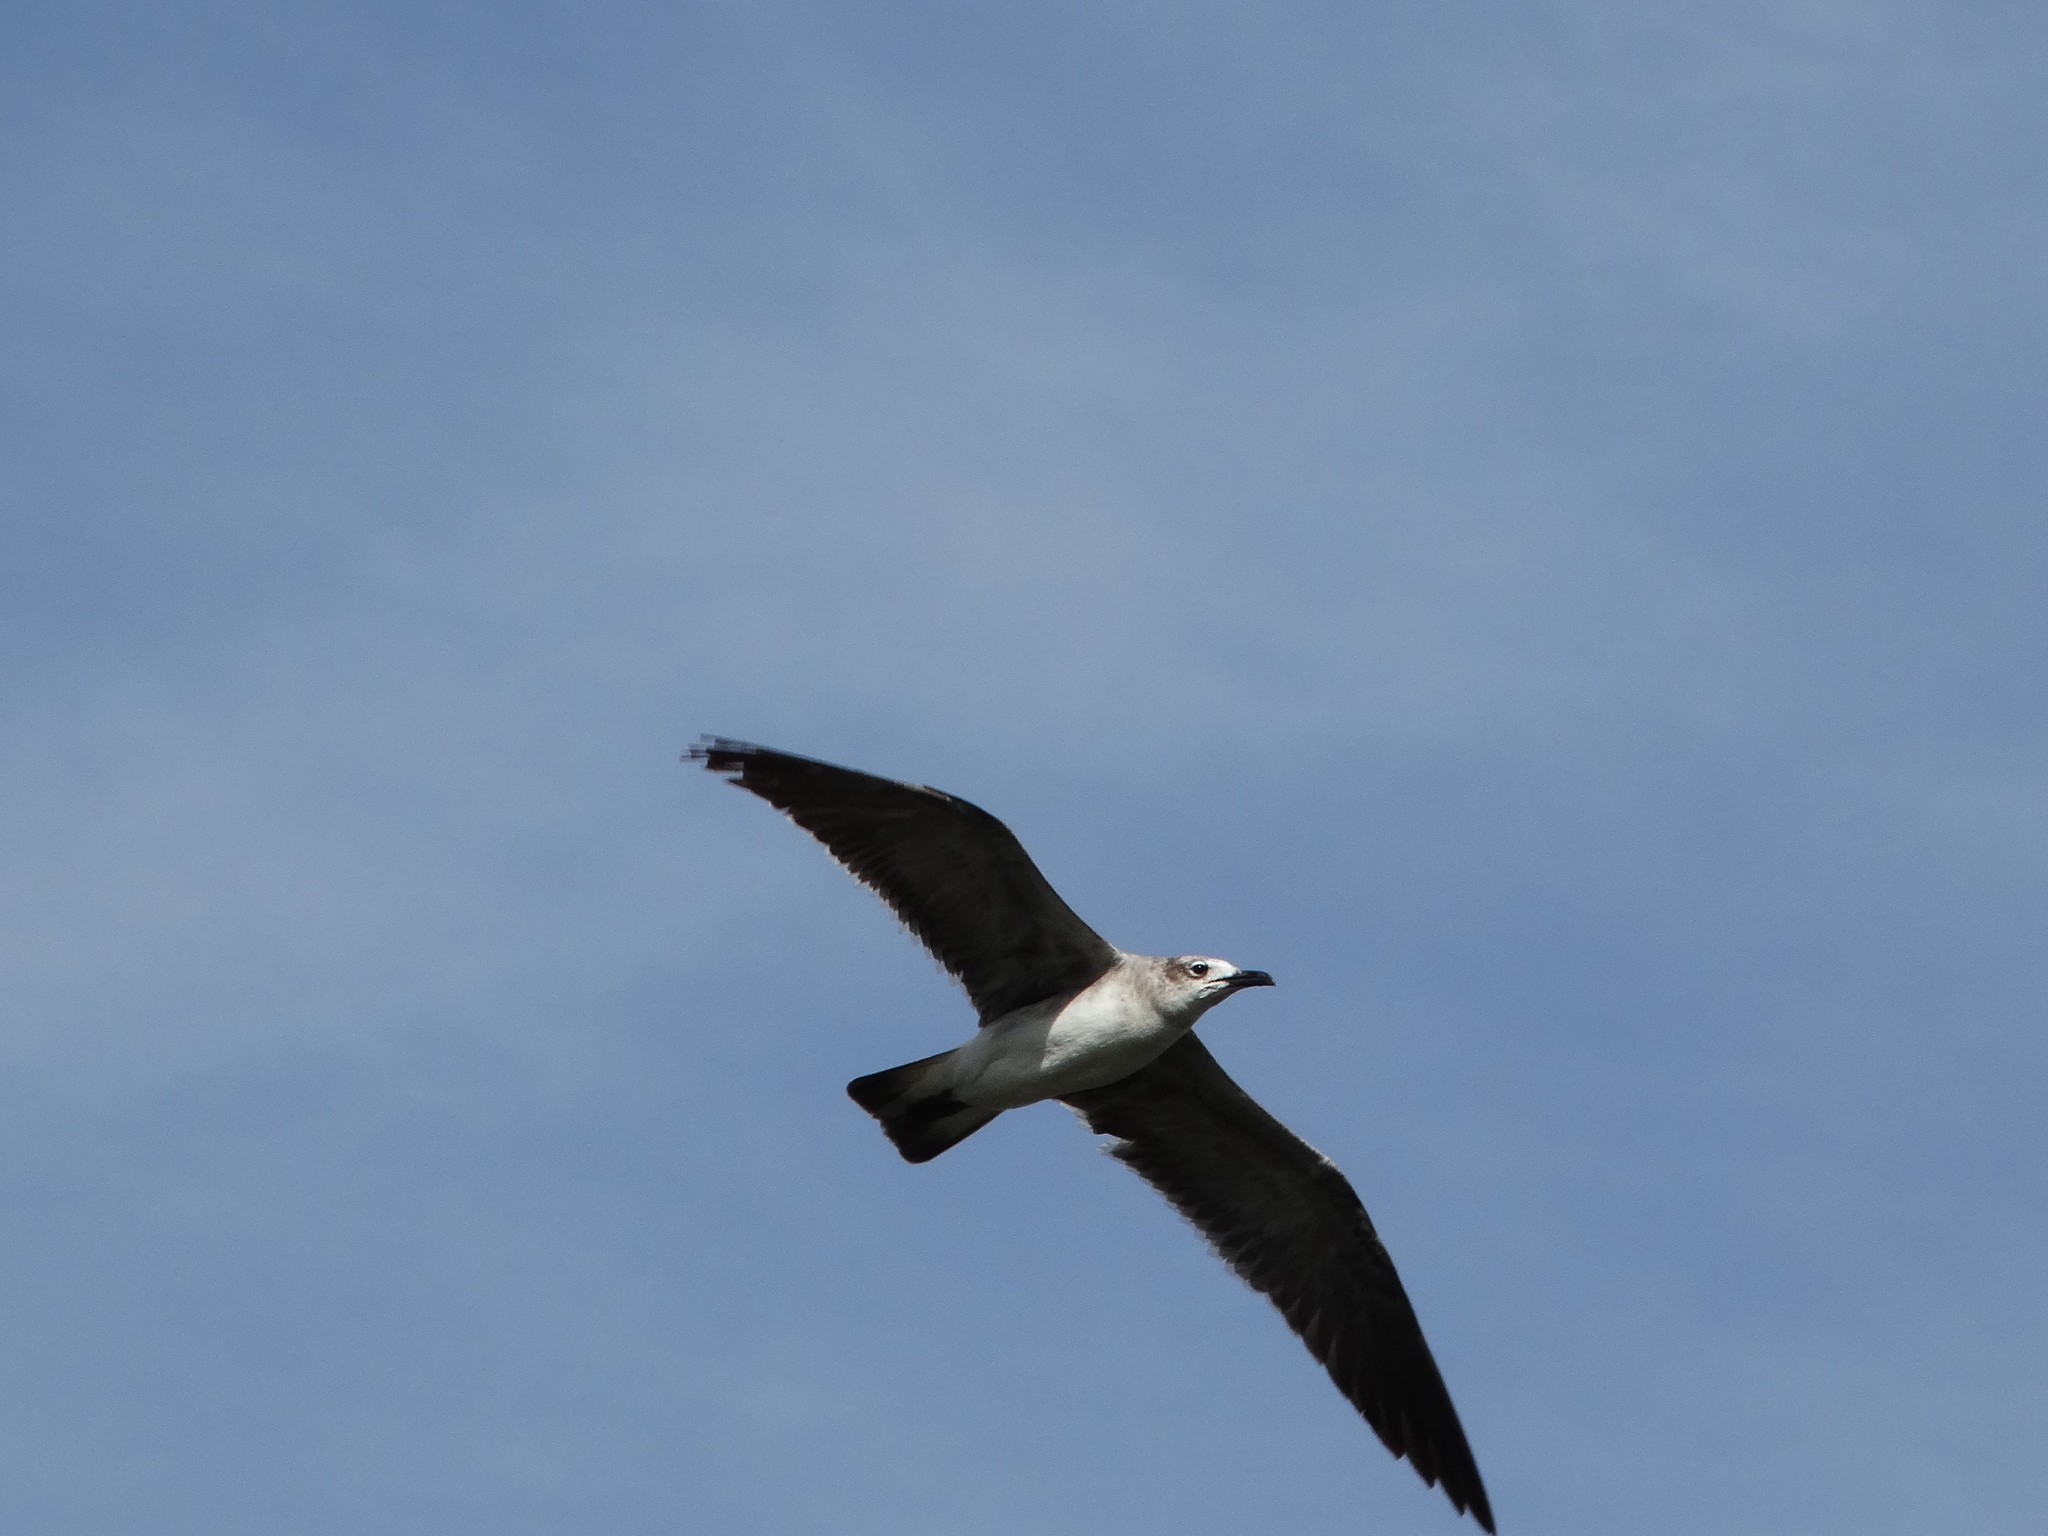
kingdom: Animalia
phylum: Chordata
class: Aves
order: Charadriiformes
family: Laridae
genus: Leucophaeus
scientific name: Leucophaeus atricilla
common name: Laughing gull
